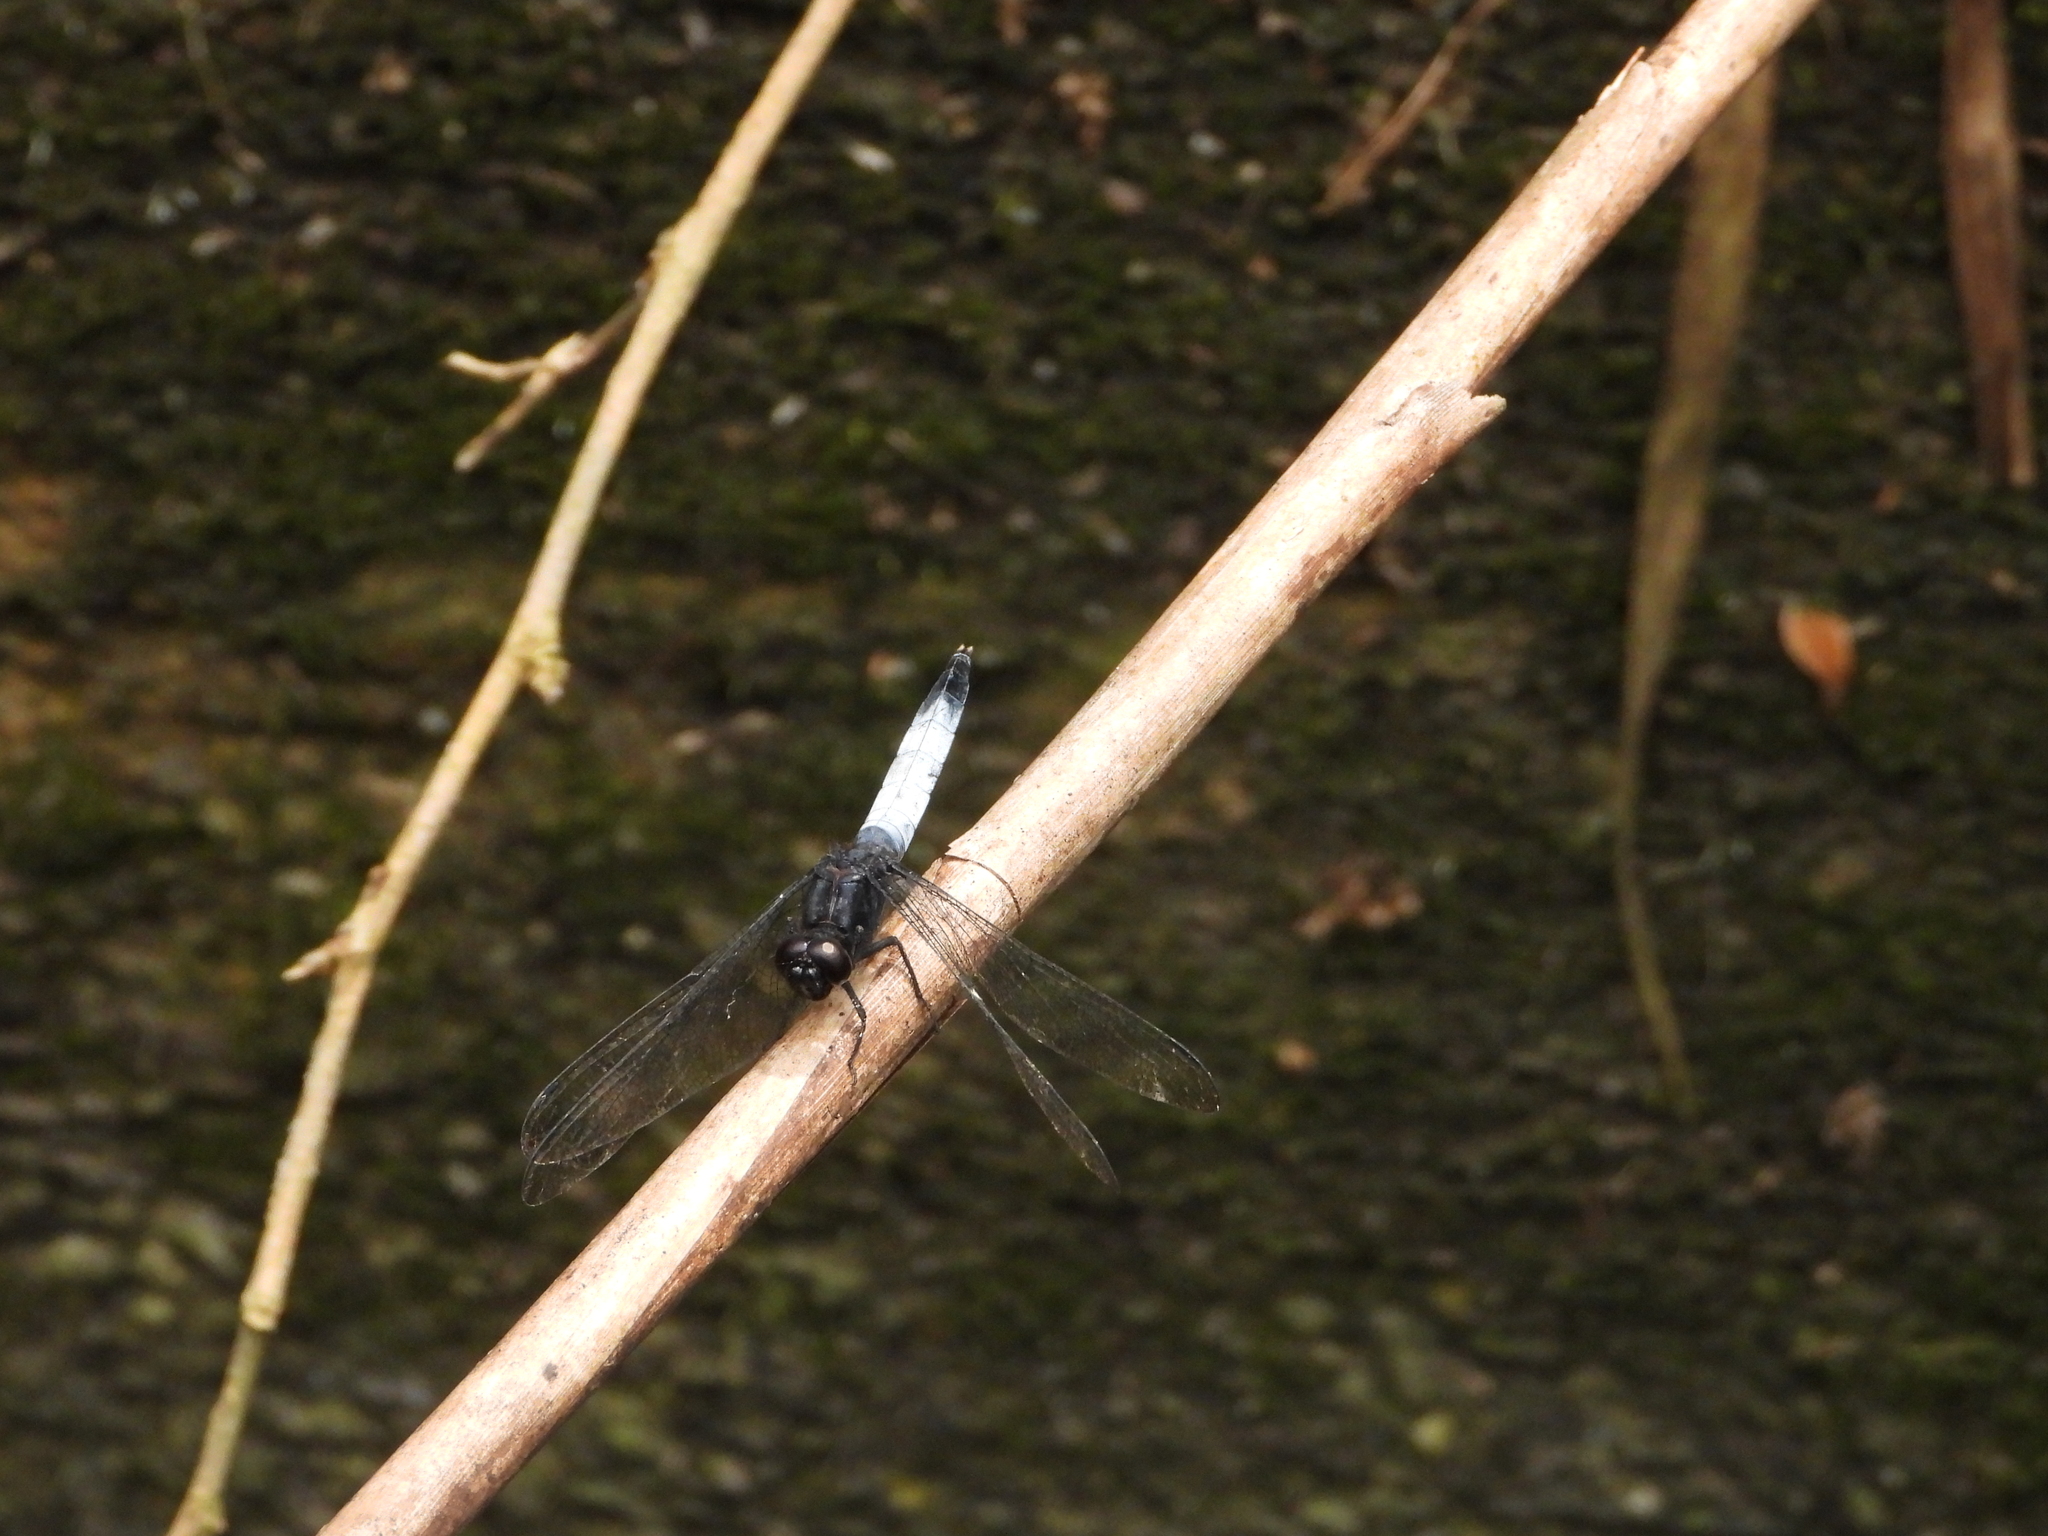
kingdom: Animalia
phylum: Arthropoda
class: Insecta
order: Odonata
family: Libellulidae
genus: Orthetrum
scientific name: Orthetrum triangulare
